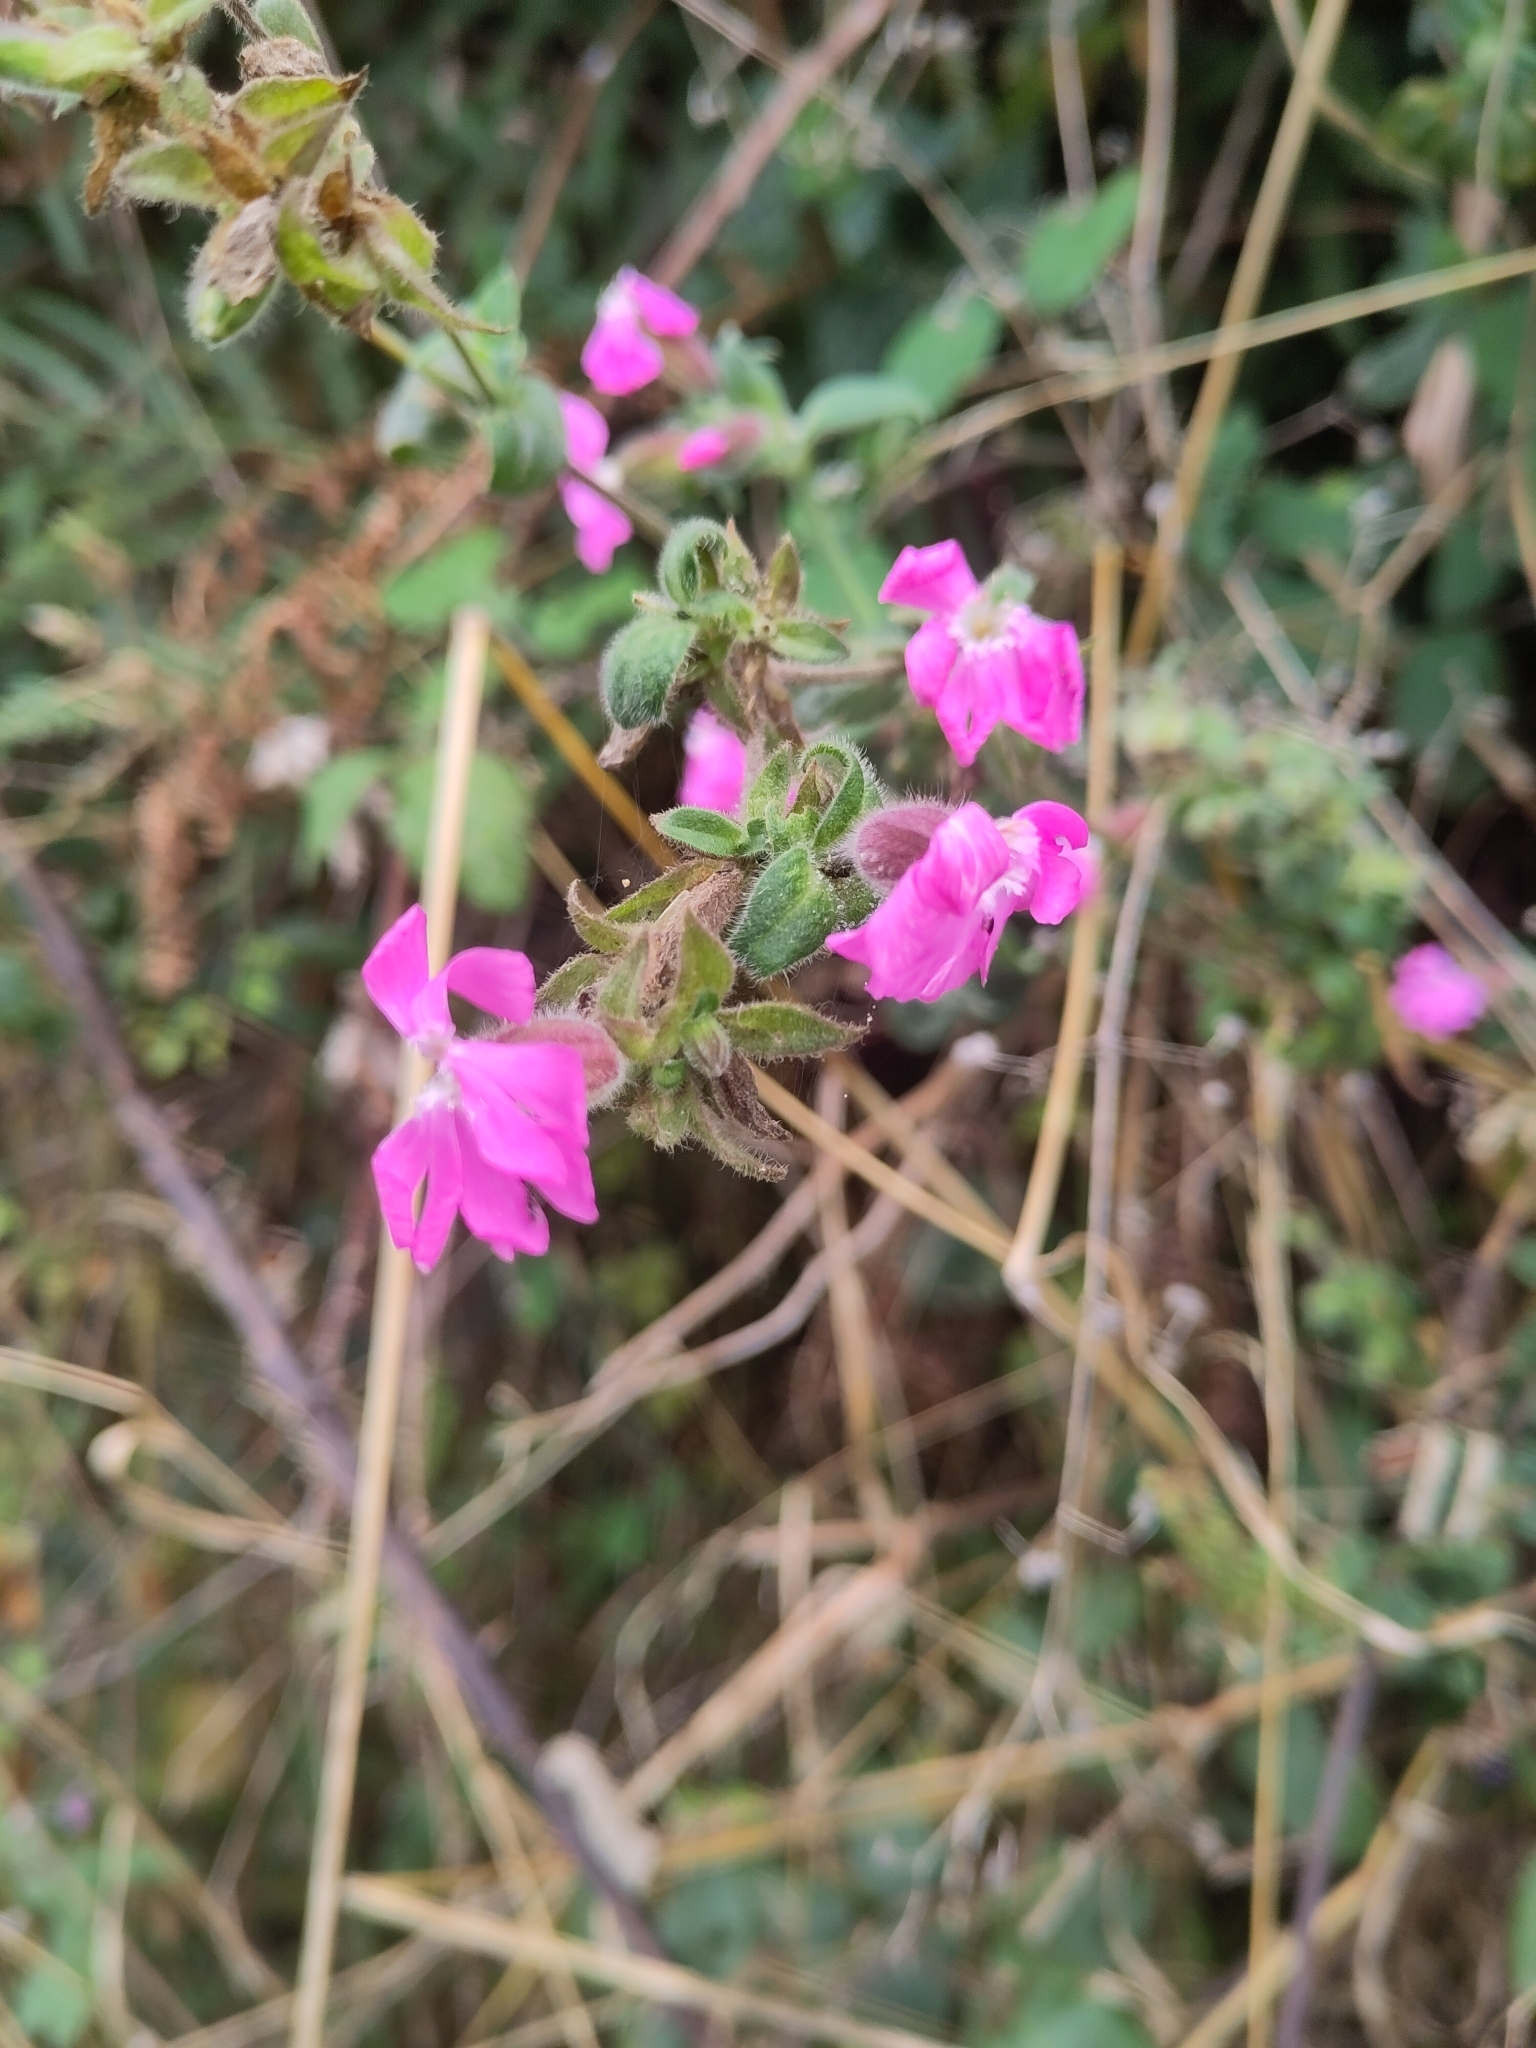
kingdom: Plantae
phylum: Tracheophyta
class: Magnoliopsida
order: Caryophyllales
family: Caryophyllaceae
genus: Silene
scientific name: Silene dioica
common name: Red campion
